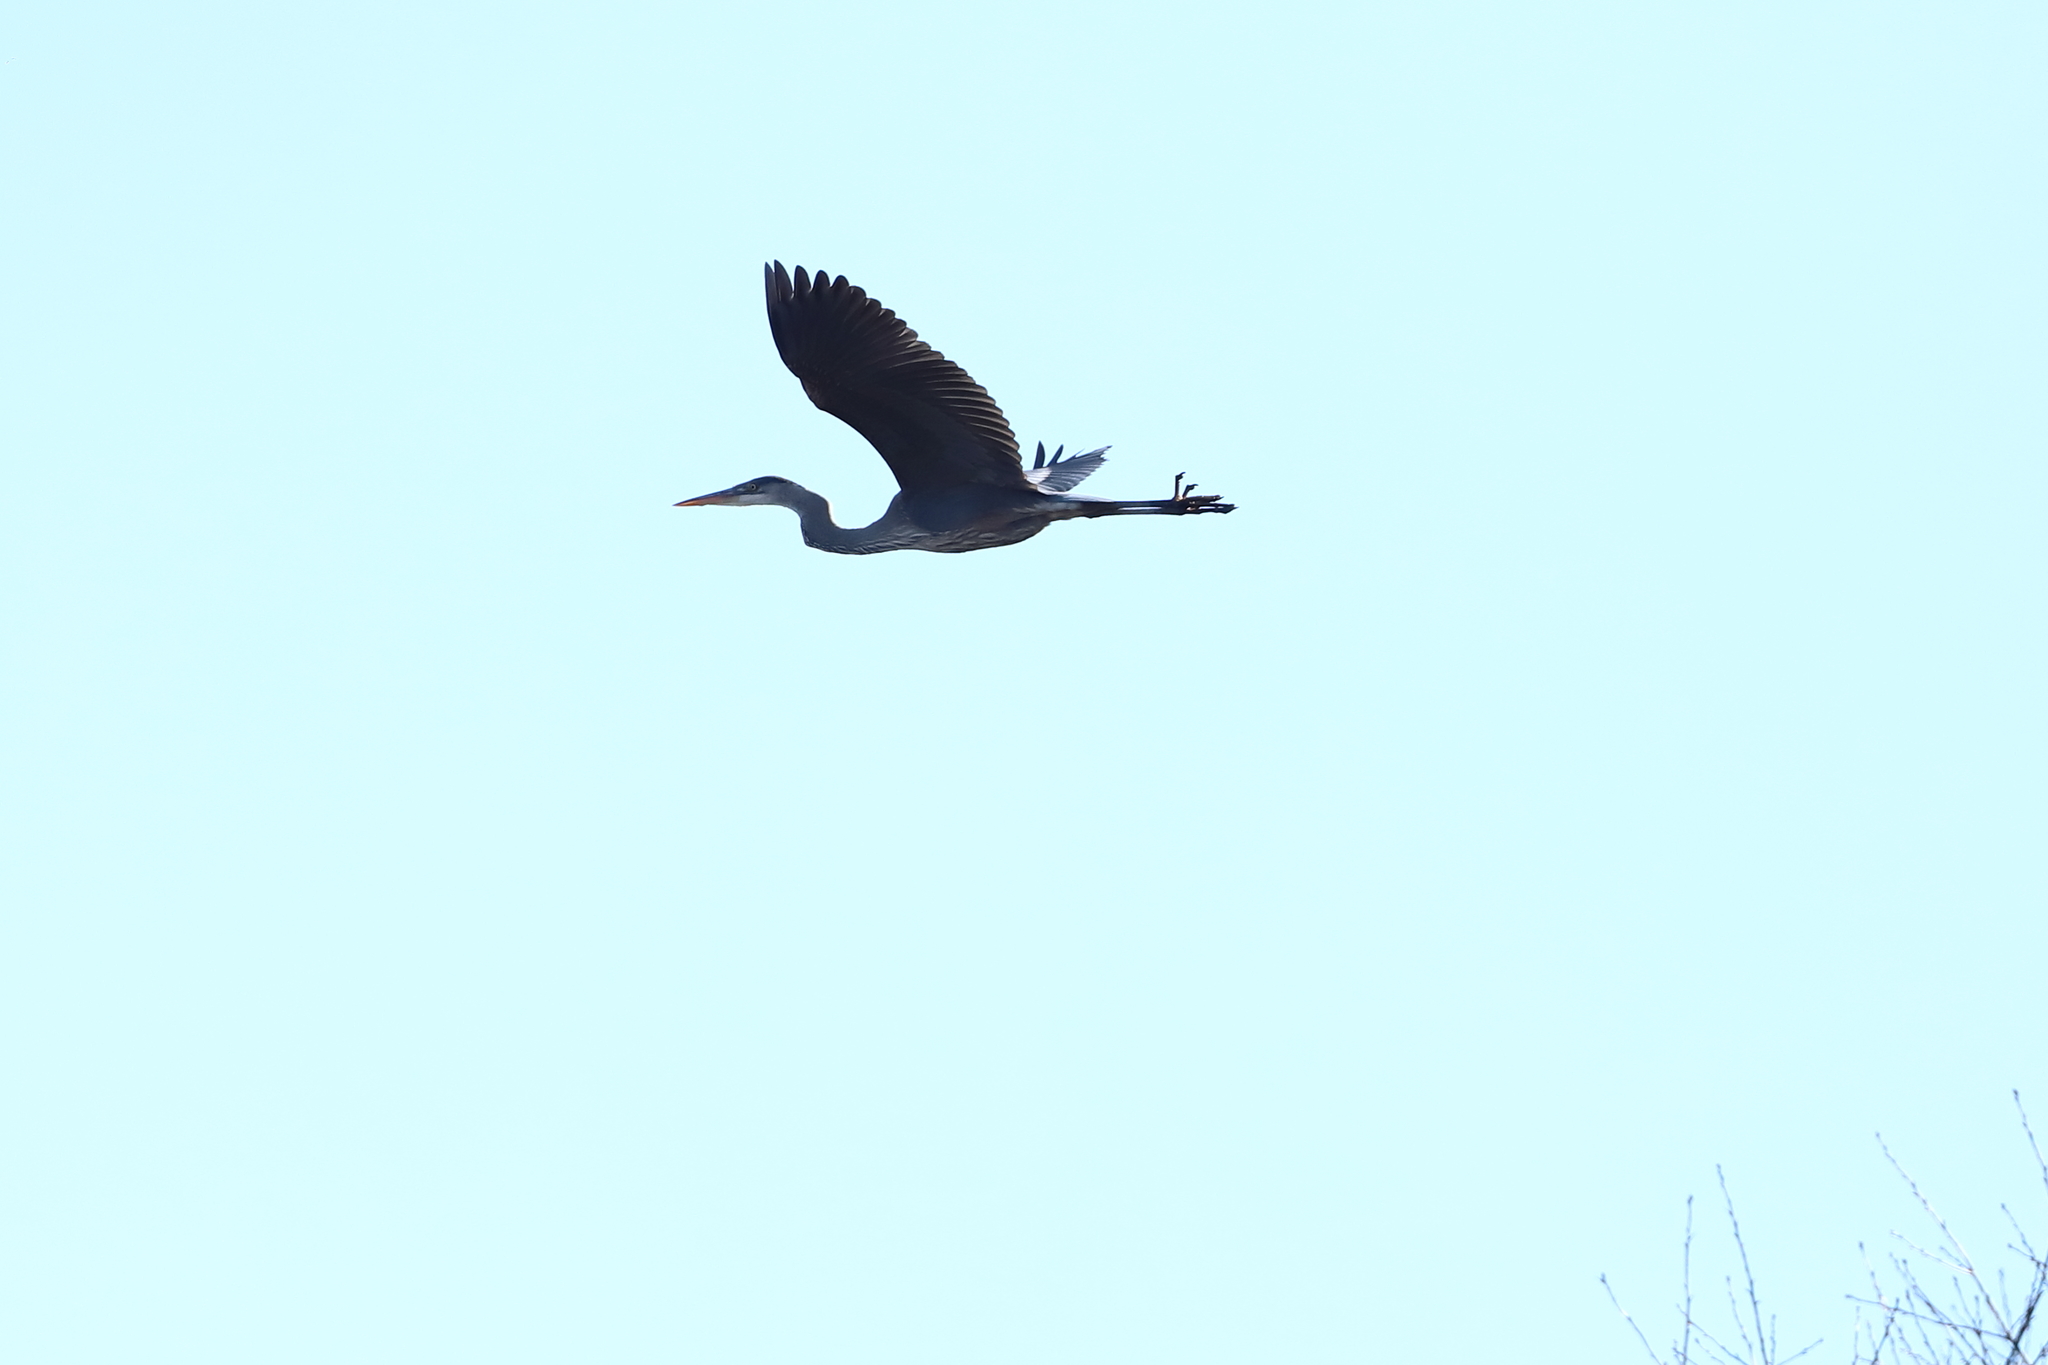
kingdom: Animalia
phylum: Chordata
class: Aves
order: Pelecaniformes
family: Ardeidae
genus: Ardea
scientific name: Ardea herodias
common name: Great blue heron
